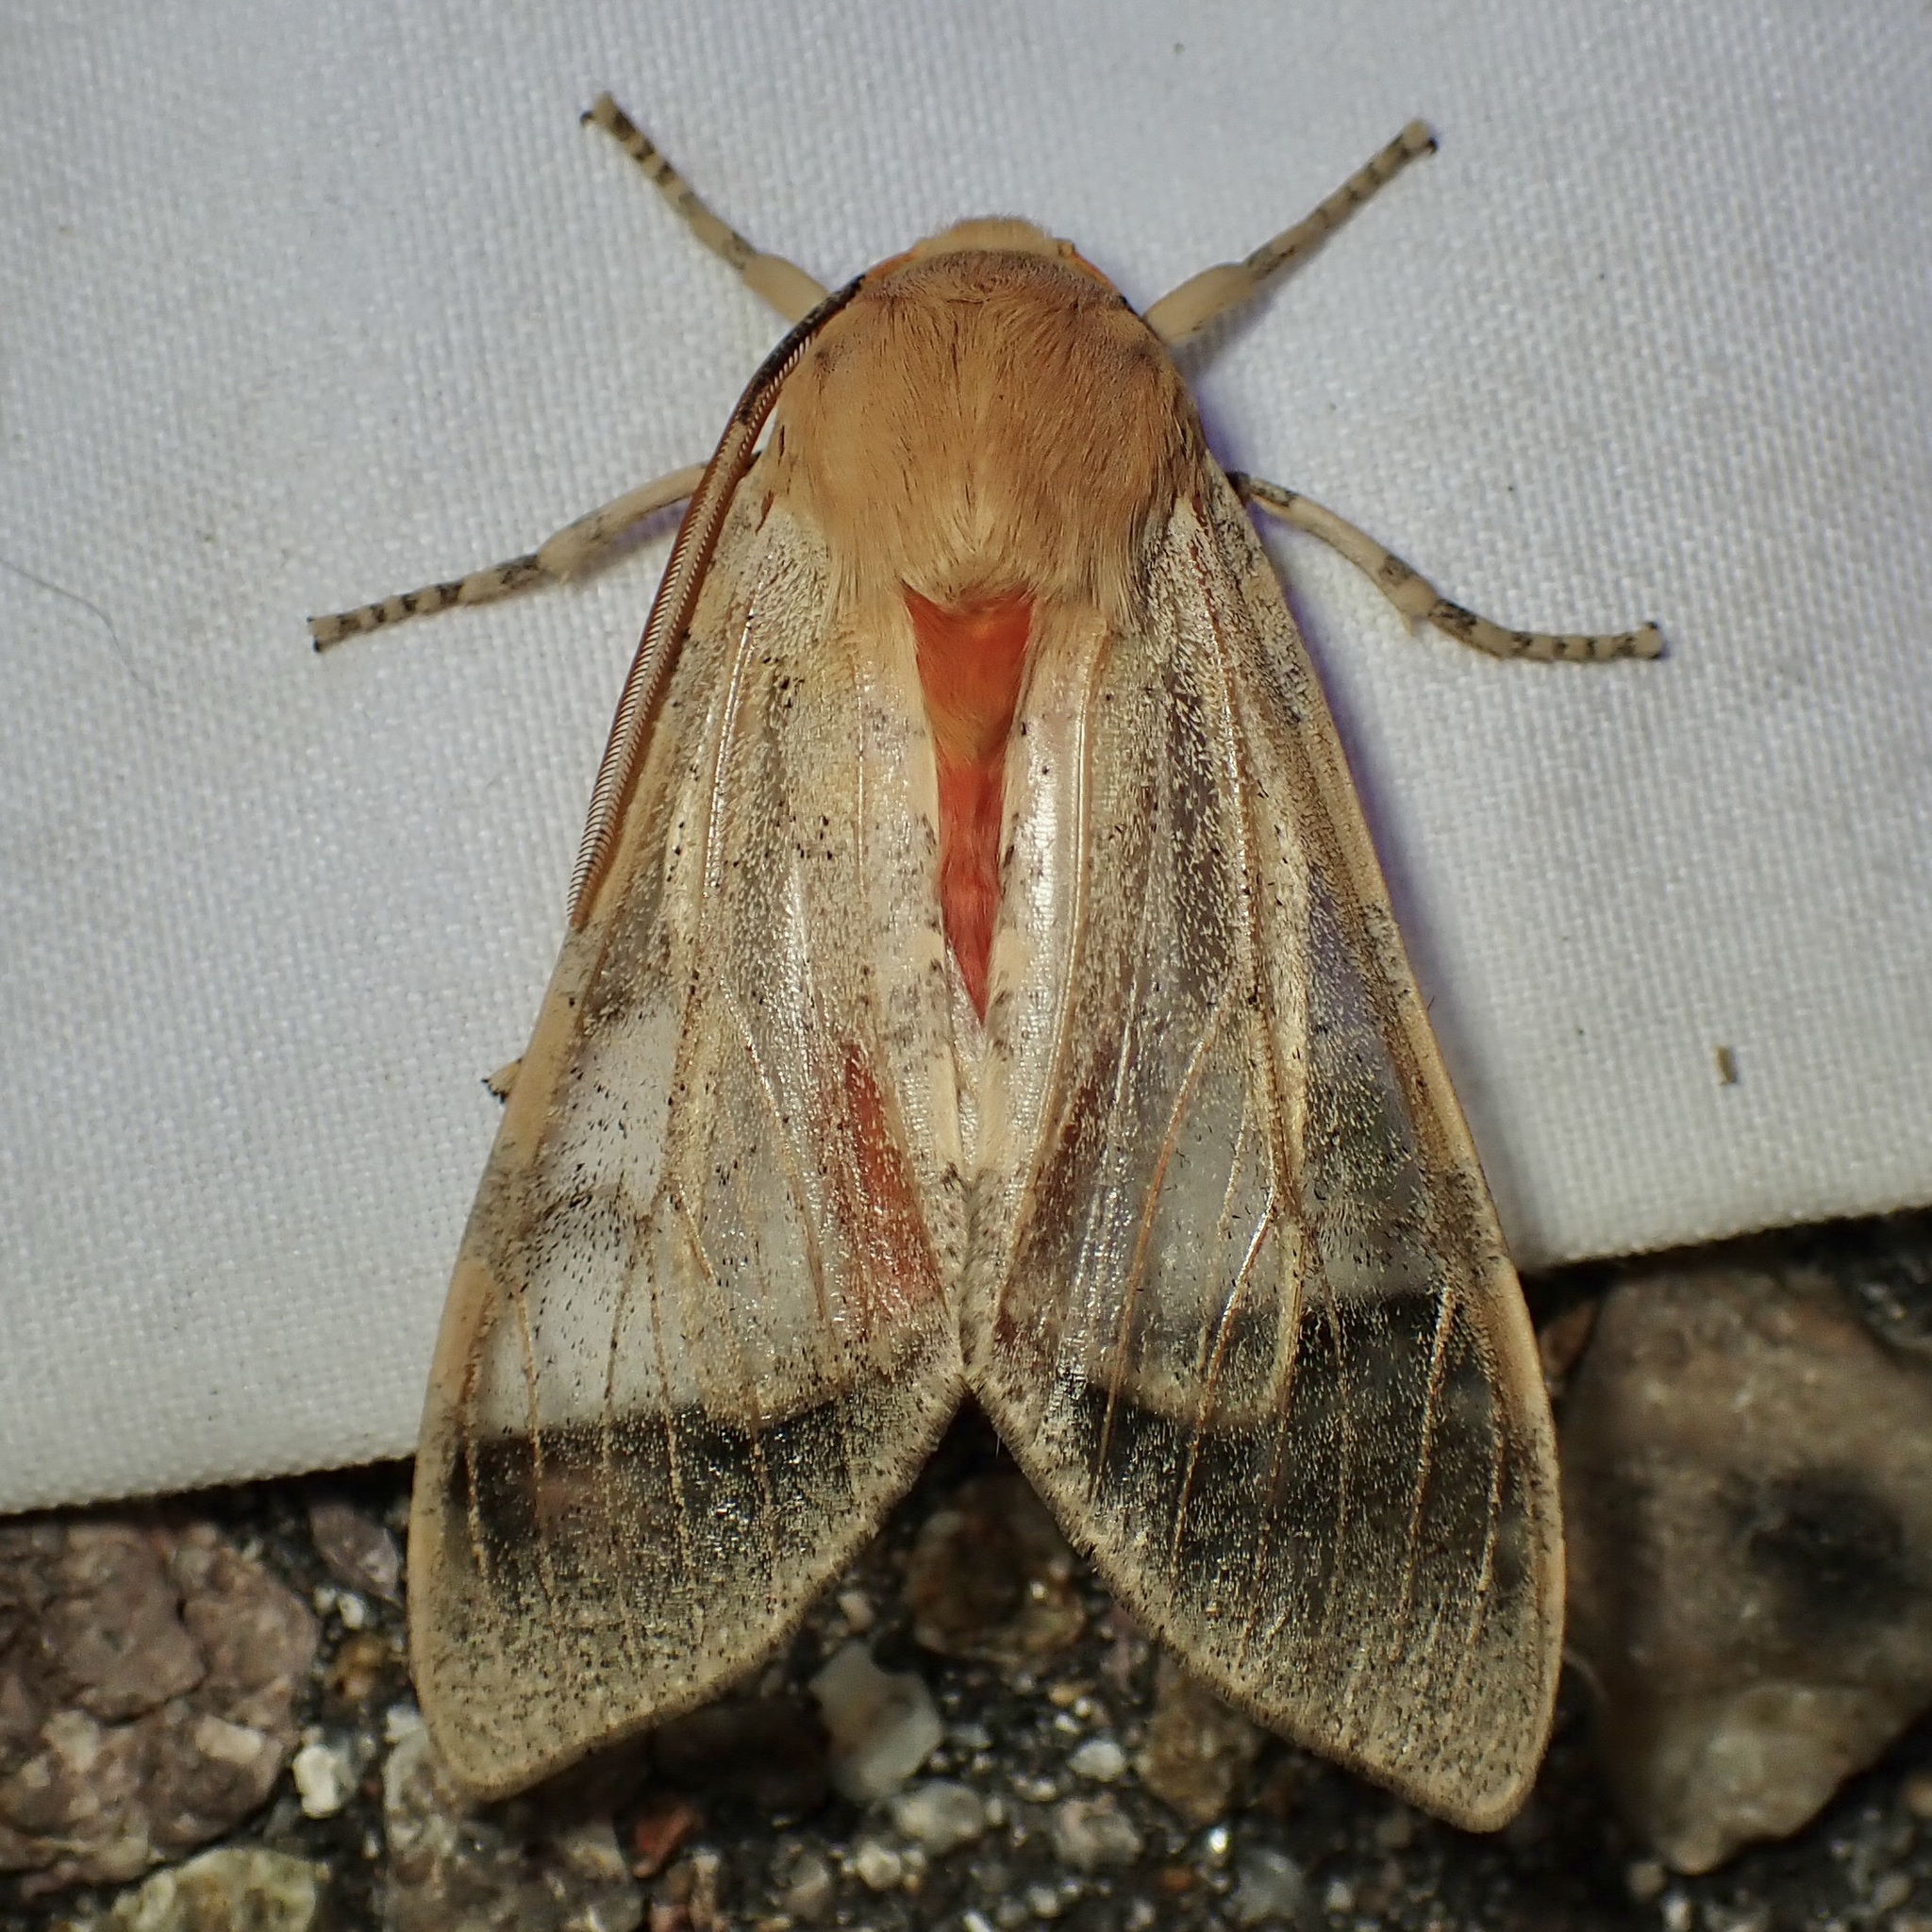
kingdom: Animalia
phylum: Arthropoda
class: Insecta
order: Lepidoptera
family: Erebidae
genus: Hemihyalea
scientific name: Hemihyalea edwardsii
